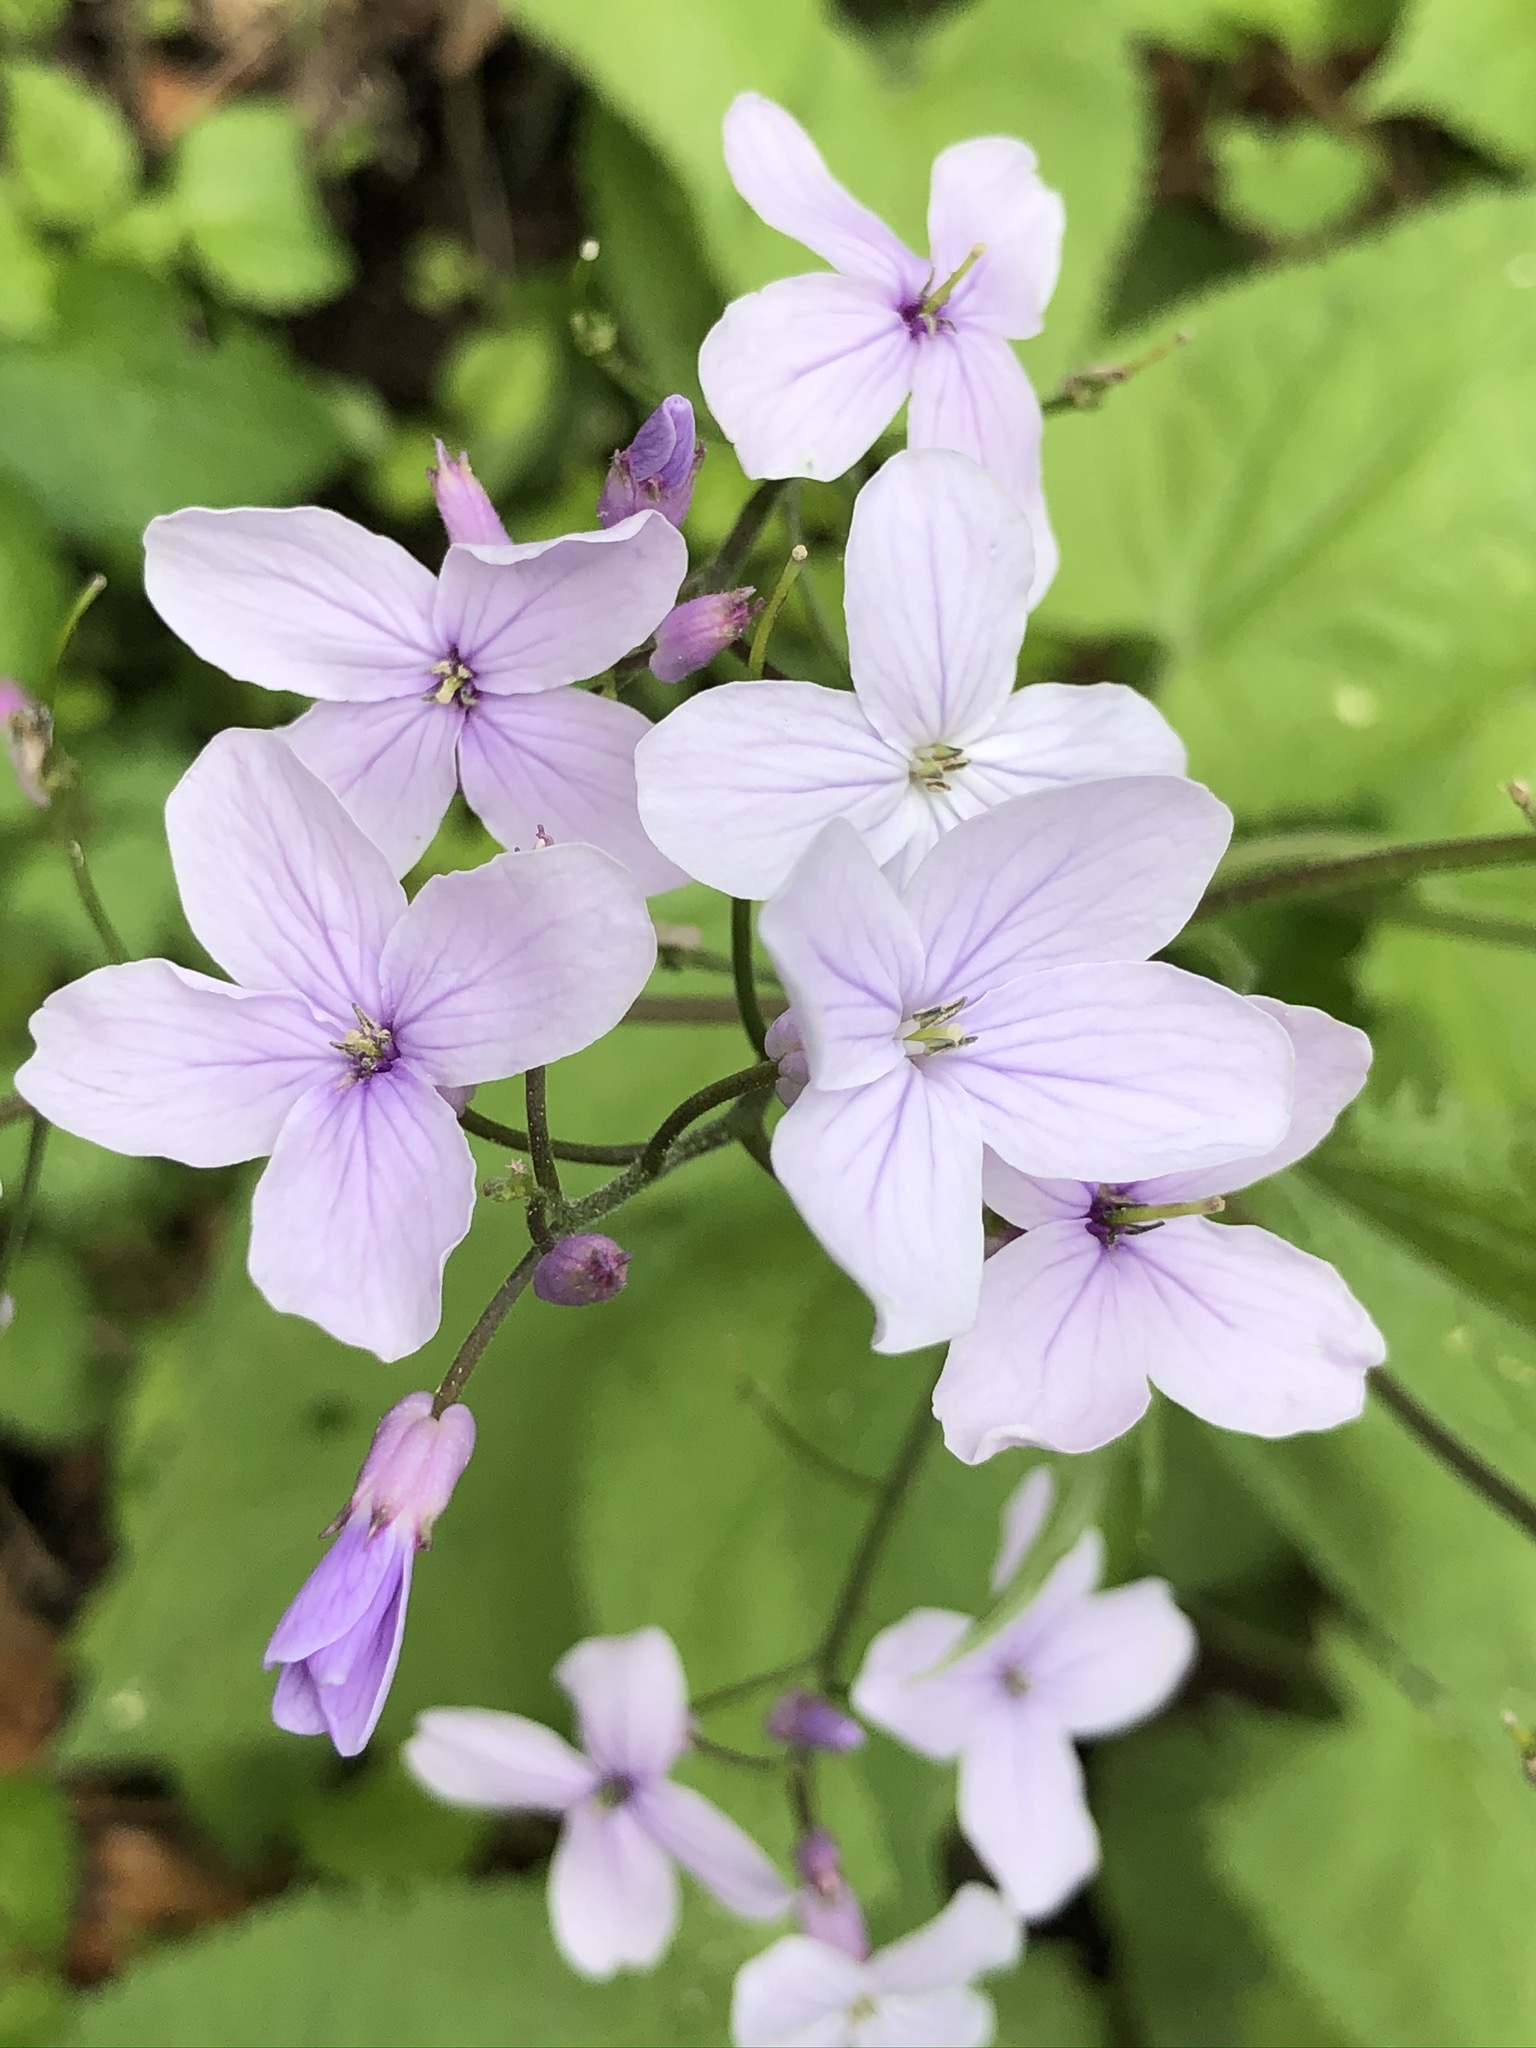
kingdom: Plantae
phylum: Tracheophyta
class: Magnoliopsida
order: Brassicales
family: Brassicaceae
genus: Lunaria
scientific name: Lunaria rediviva
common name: Perennial honesty
